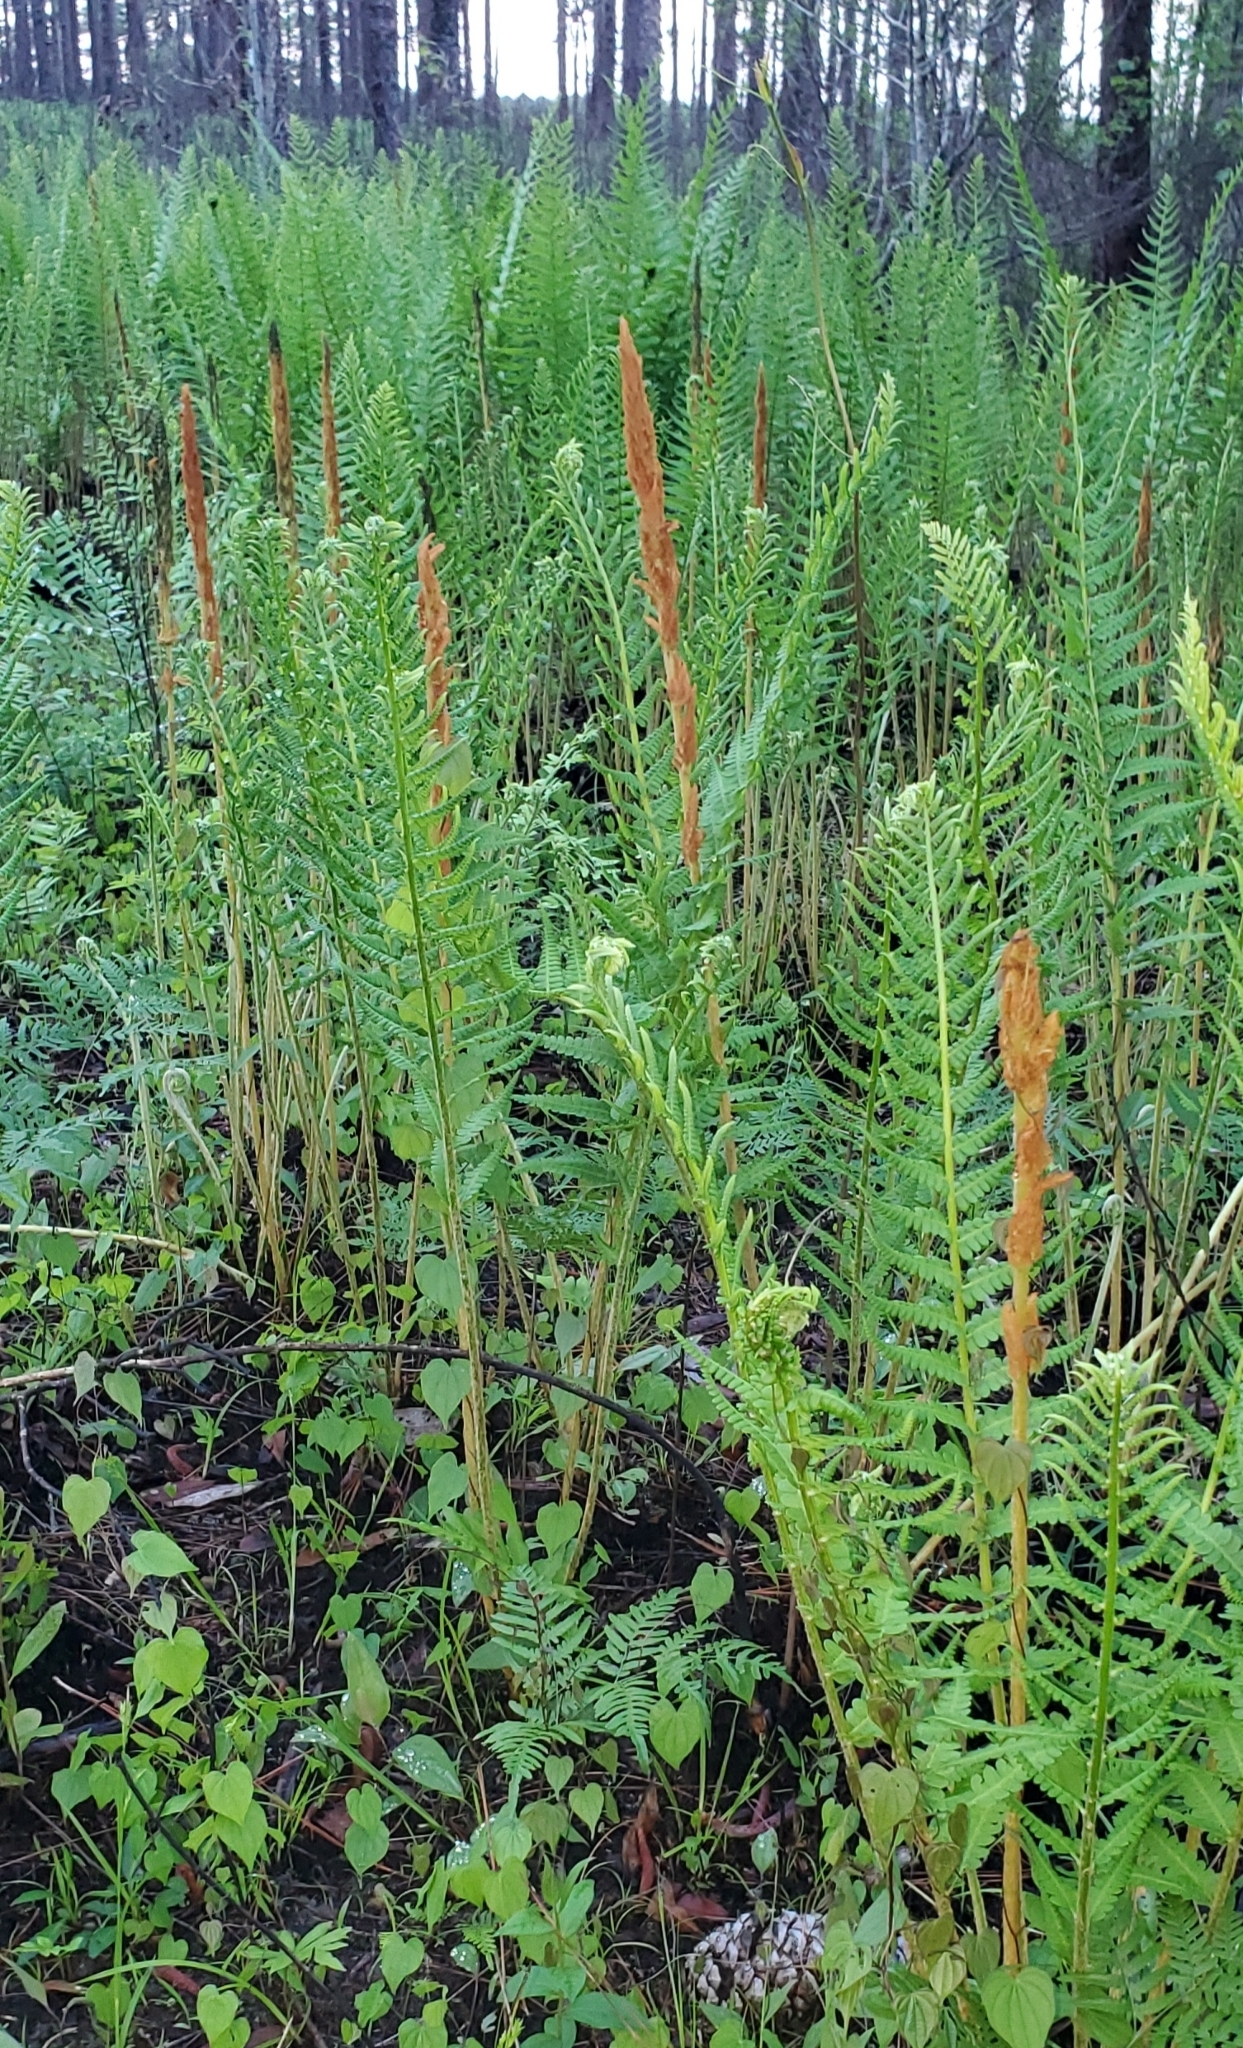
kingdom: Plantae
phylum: Tracheophyta
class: Polypodiopsida
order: Osmundales
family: Osmundaceae
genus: Osmundastrum
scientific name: Osmundastrum cinnamomeum
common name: Cinnamon fern
